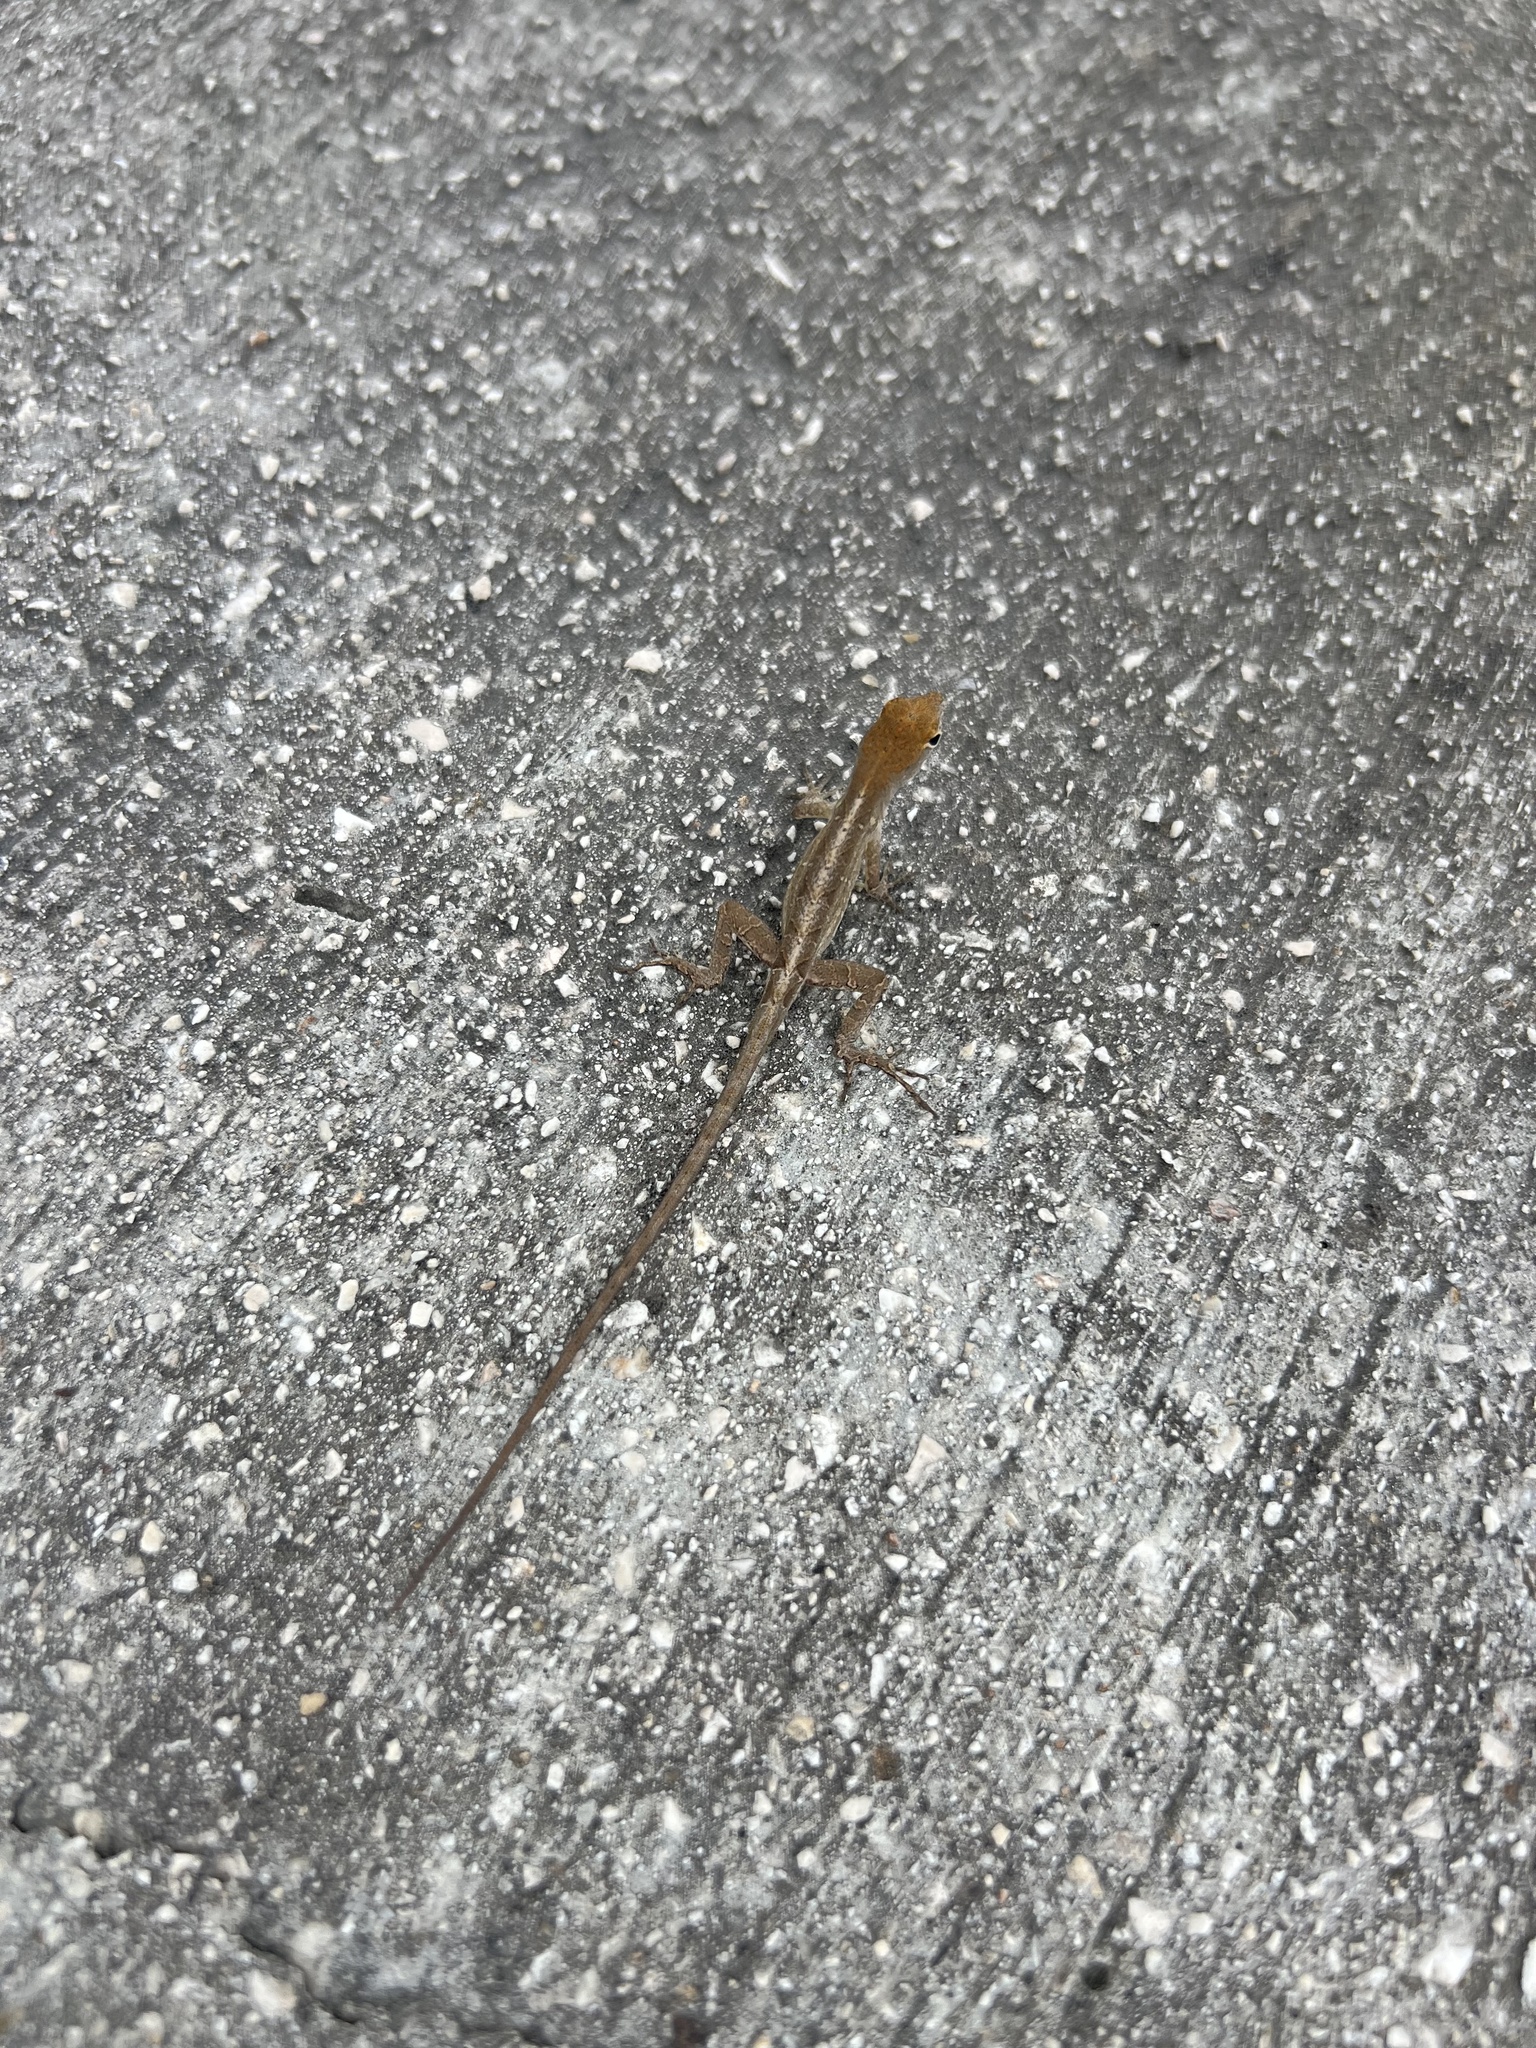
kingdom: Animalia
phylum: Chordata
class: Squamata
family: Dactyloidae
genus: Anolis
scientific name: Anolis sagrei
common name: Brown anole
